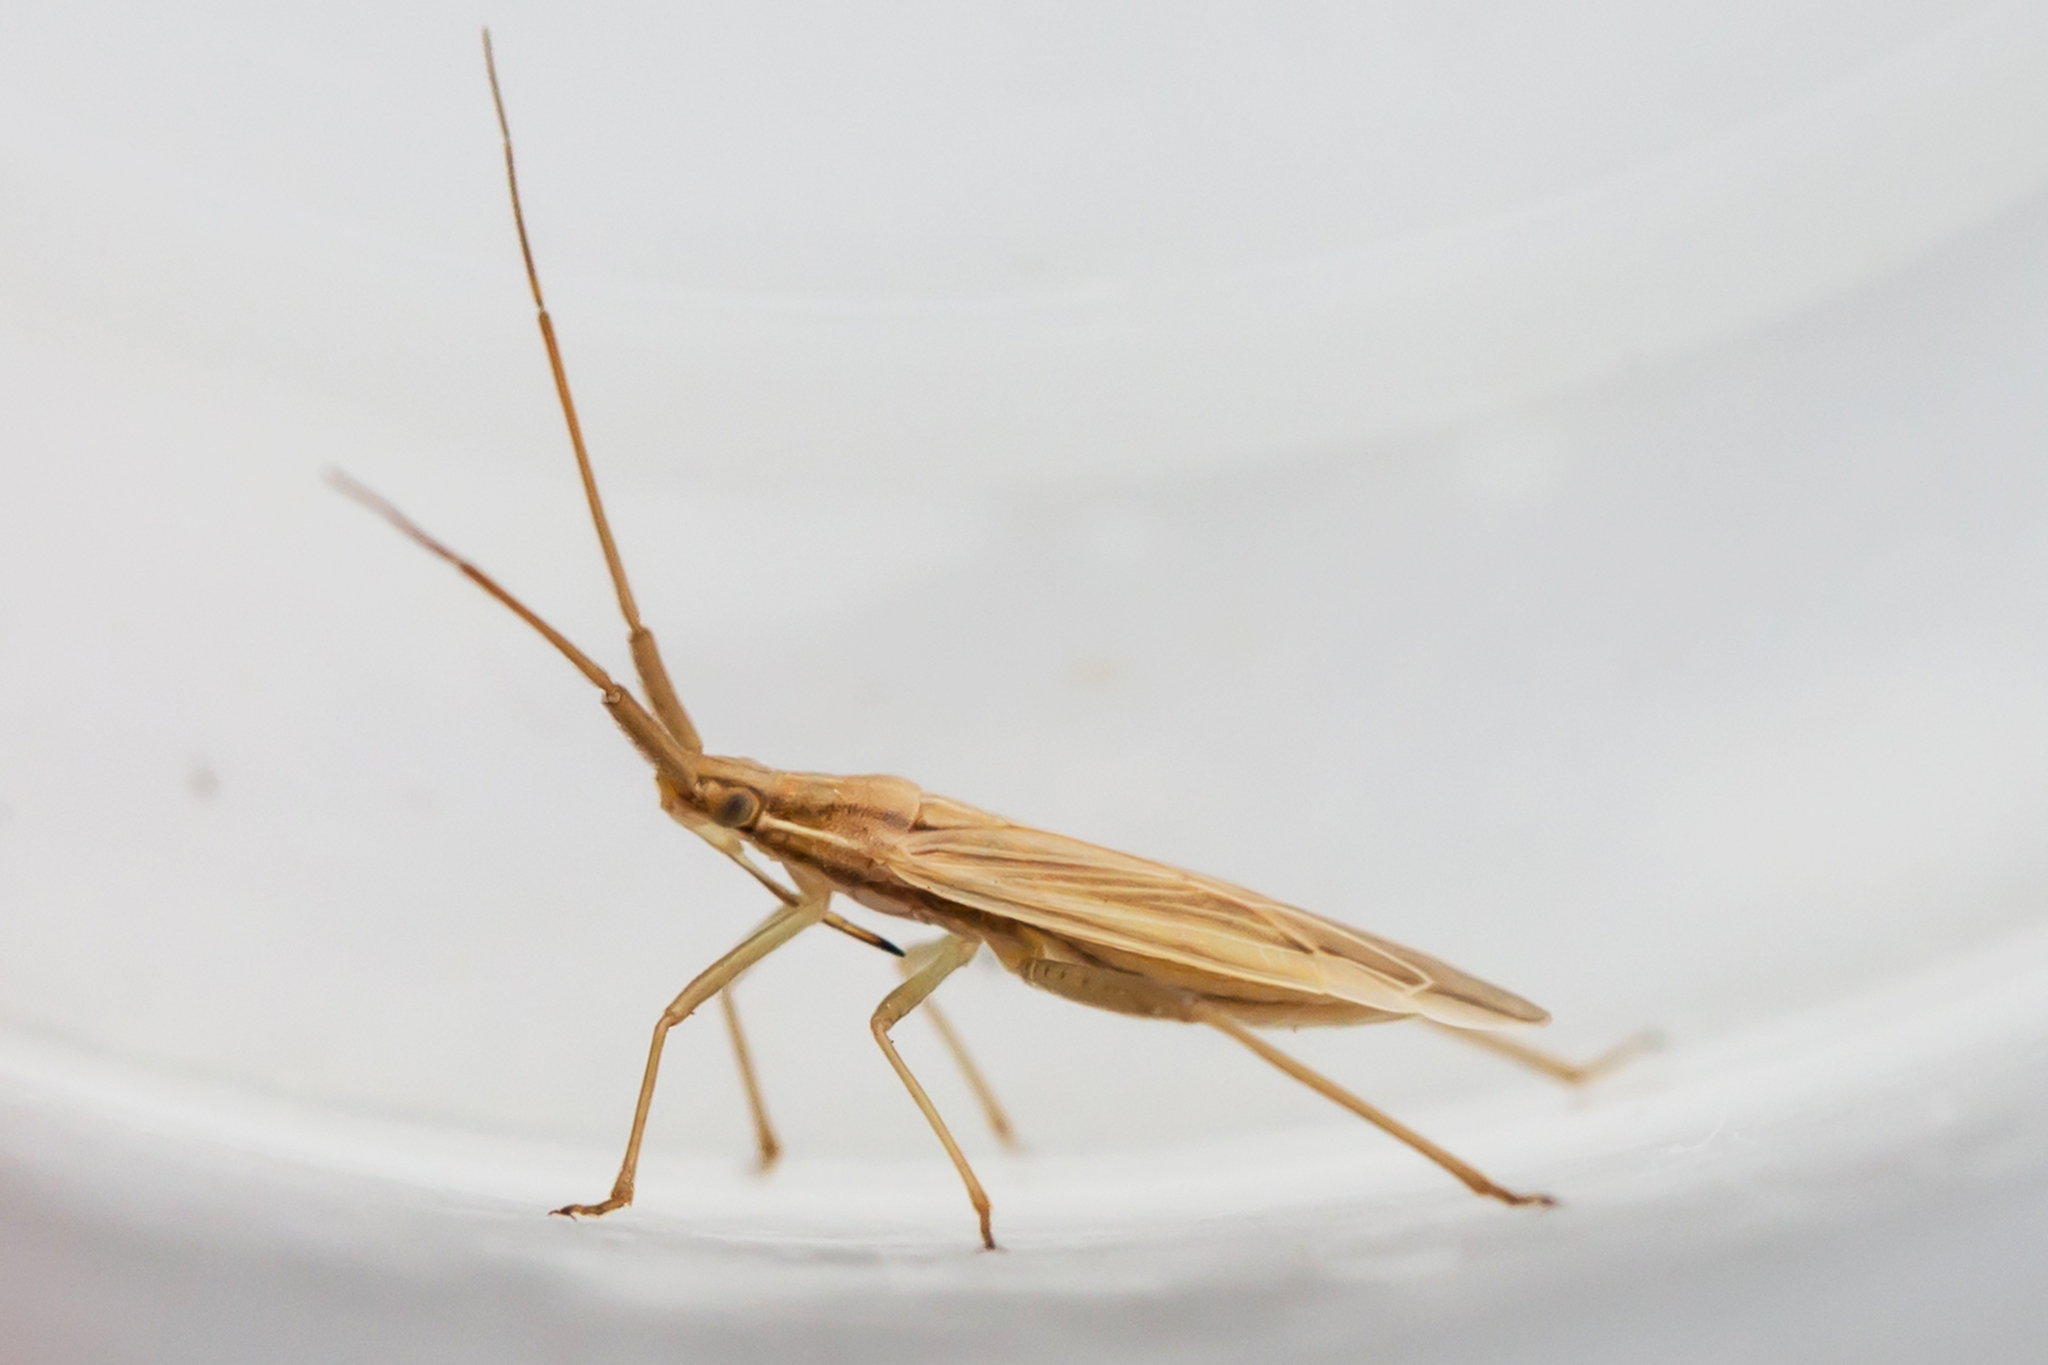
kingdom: Animalia
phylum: Arthropoda
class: Insecta
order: Hemiptera
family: Miridae
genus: Stenodema
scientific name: Stenodema trispinosa
